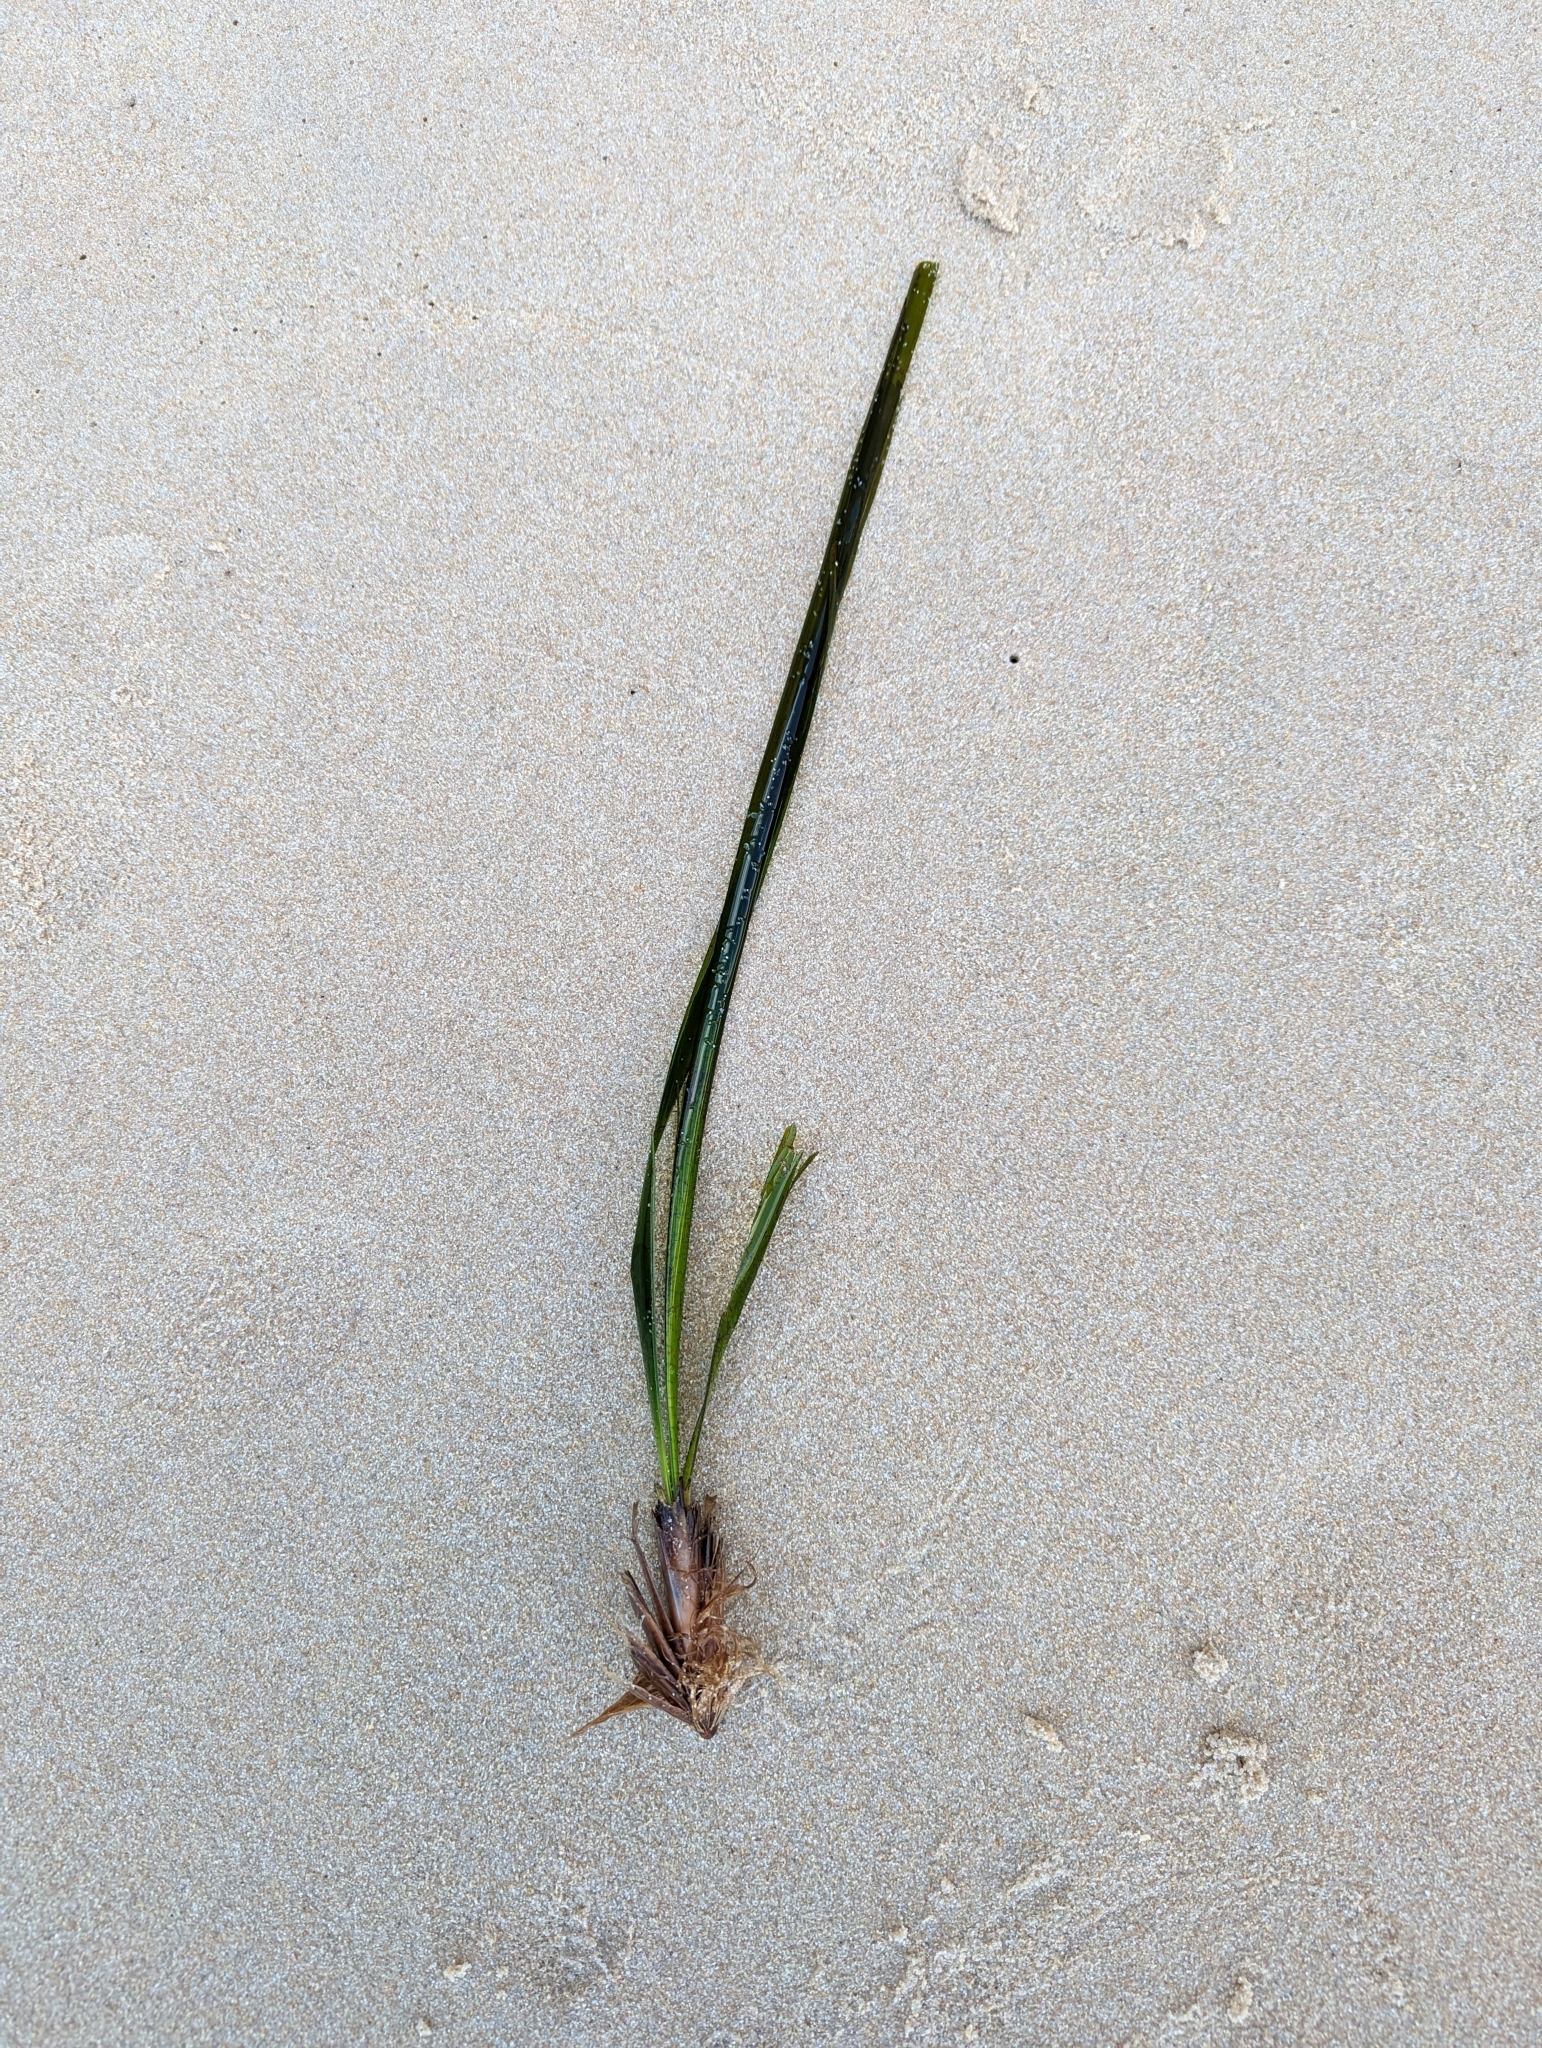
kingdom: Plantae
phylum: Tracheophyta
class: Liliopsida
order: Alismatales
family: Posidoniaceae
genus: Posidonia
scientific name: Posidonia oceanica
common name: Mediterranean tapeweed
